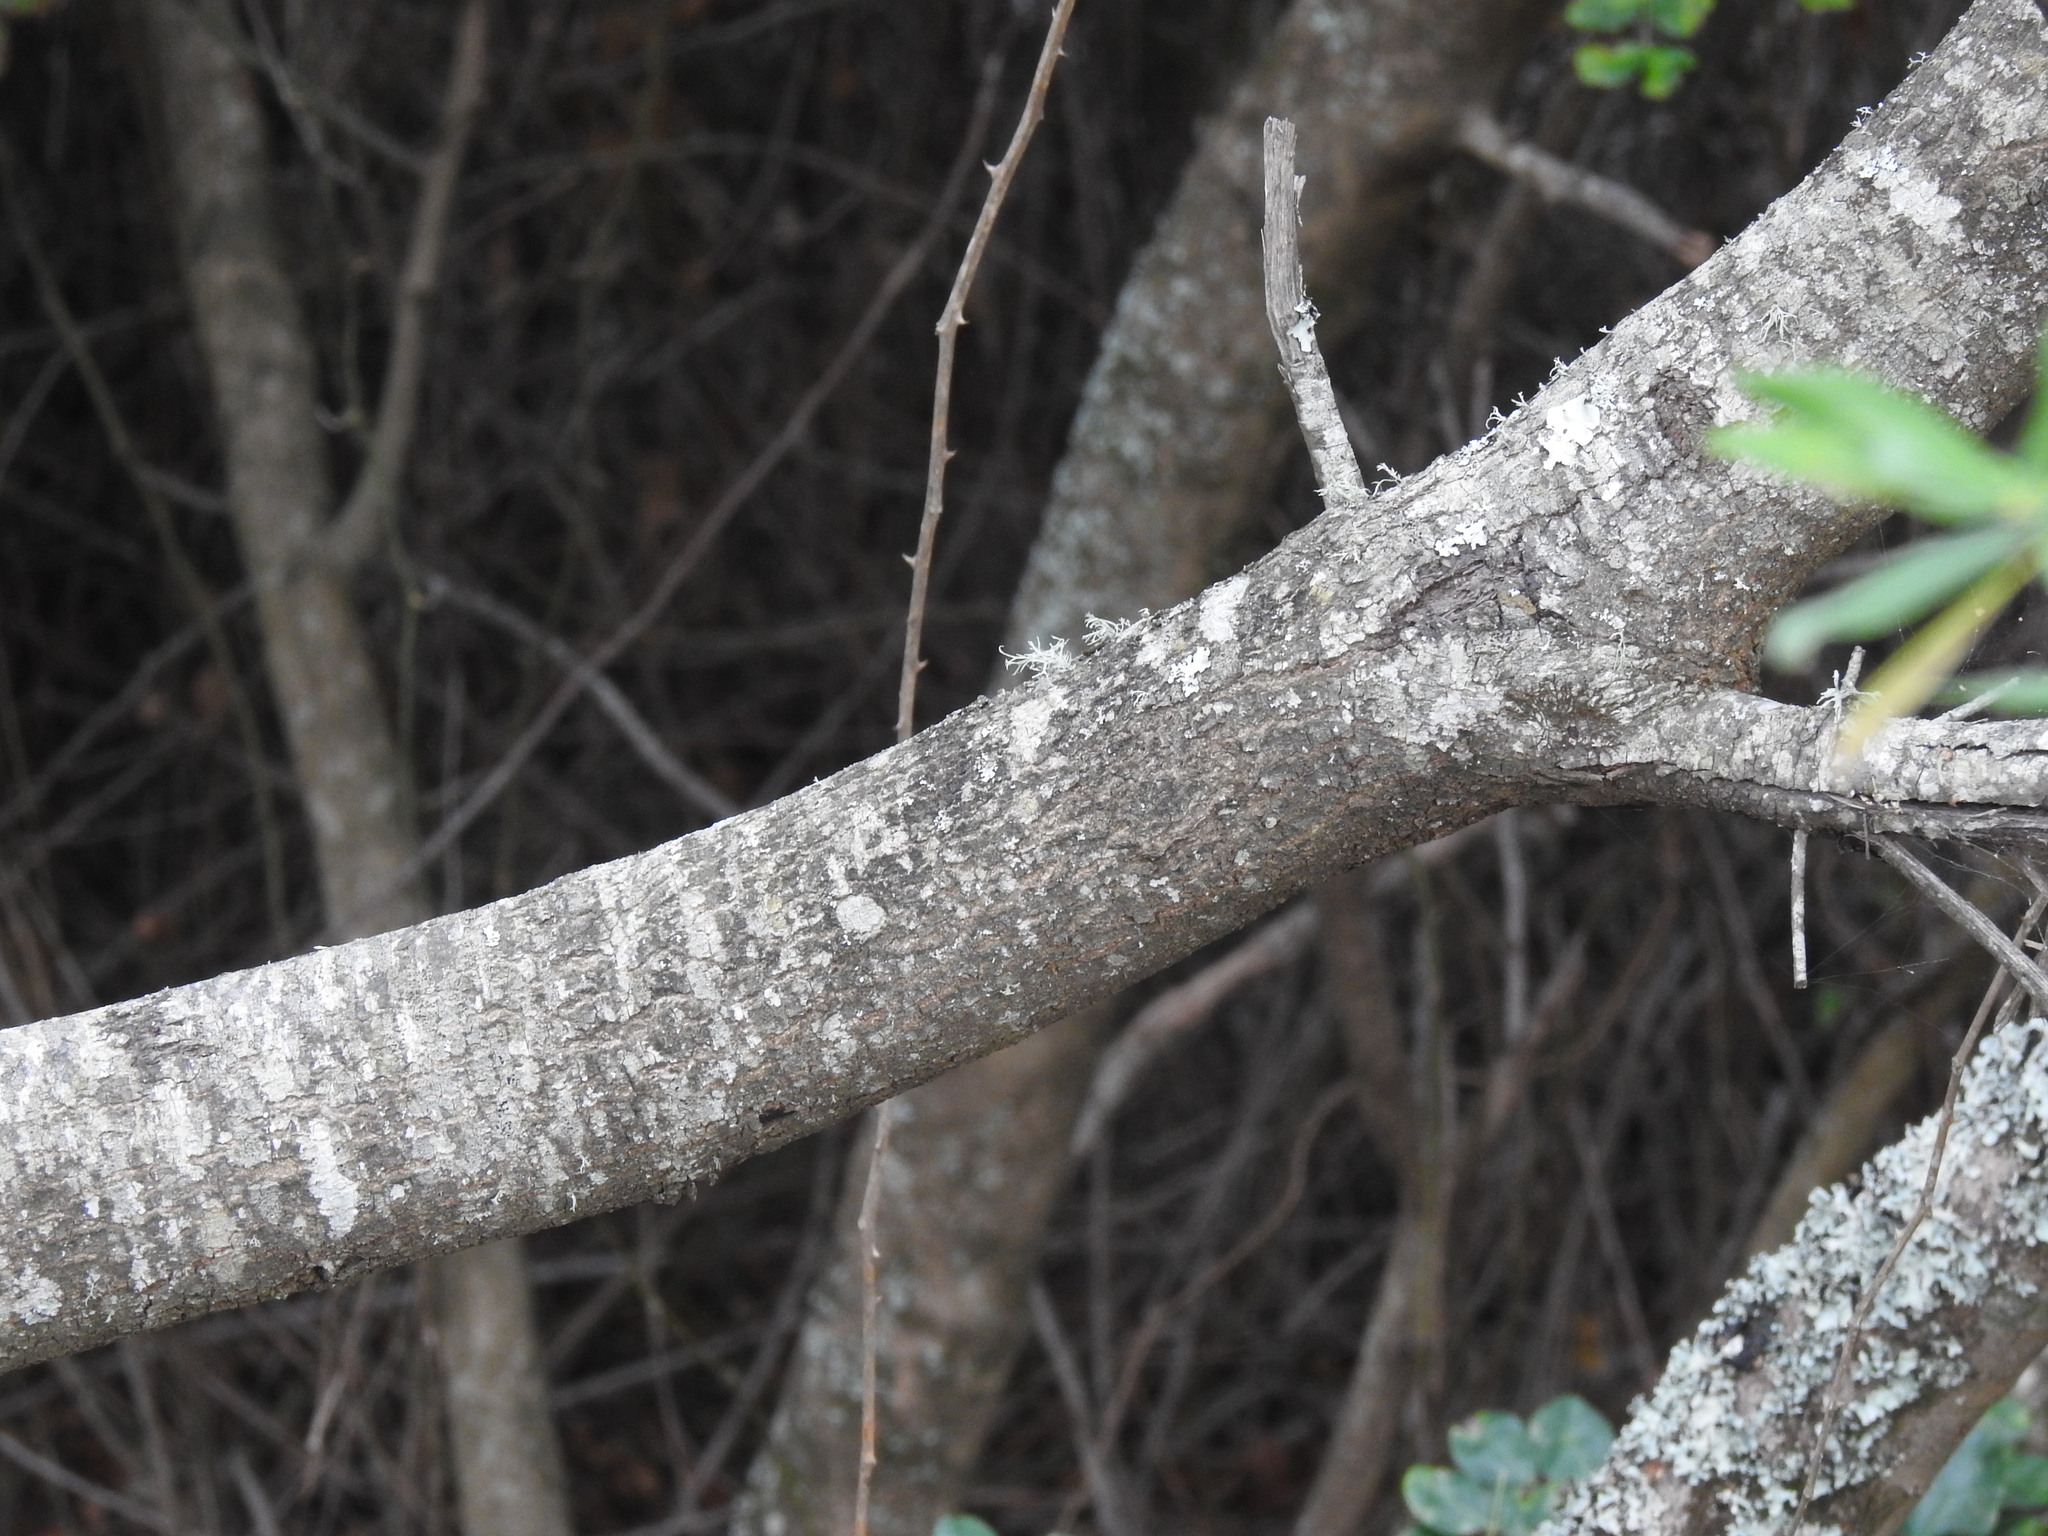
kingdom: Plantae
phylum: Tracheophyta
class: Magnoliopsida
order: Fagales
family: Fagaceae
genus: Quercus
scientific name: Quercus rotundifolia
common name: Holm oak
